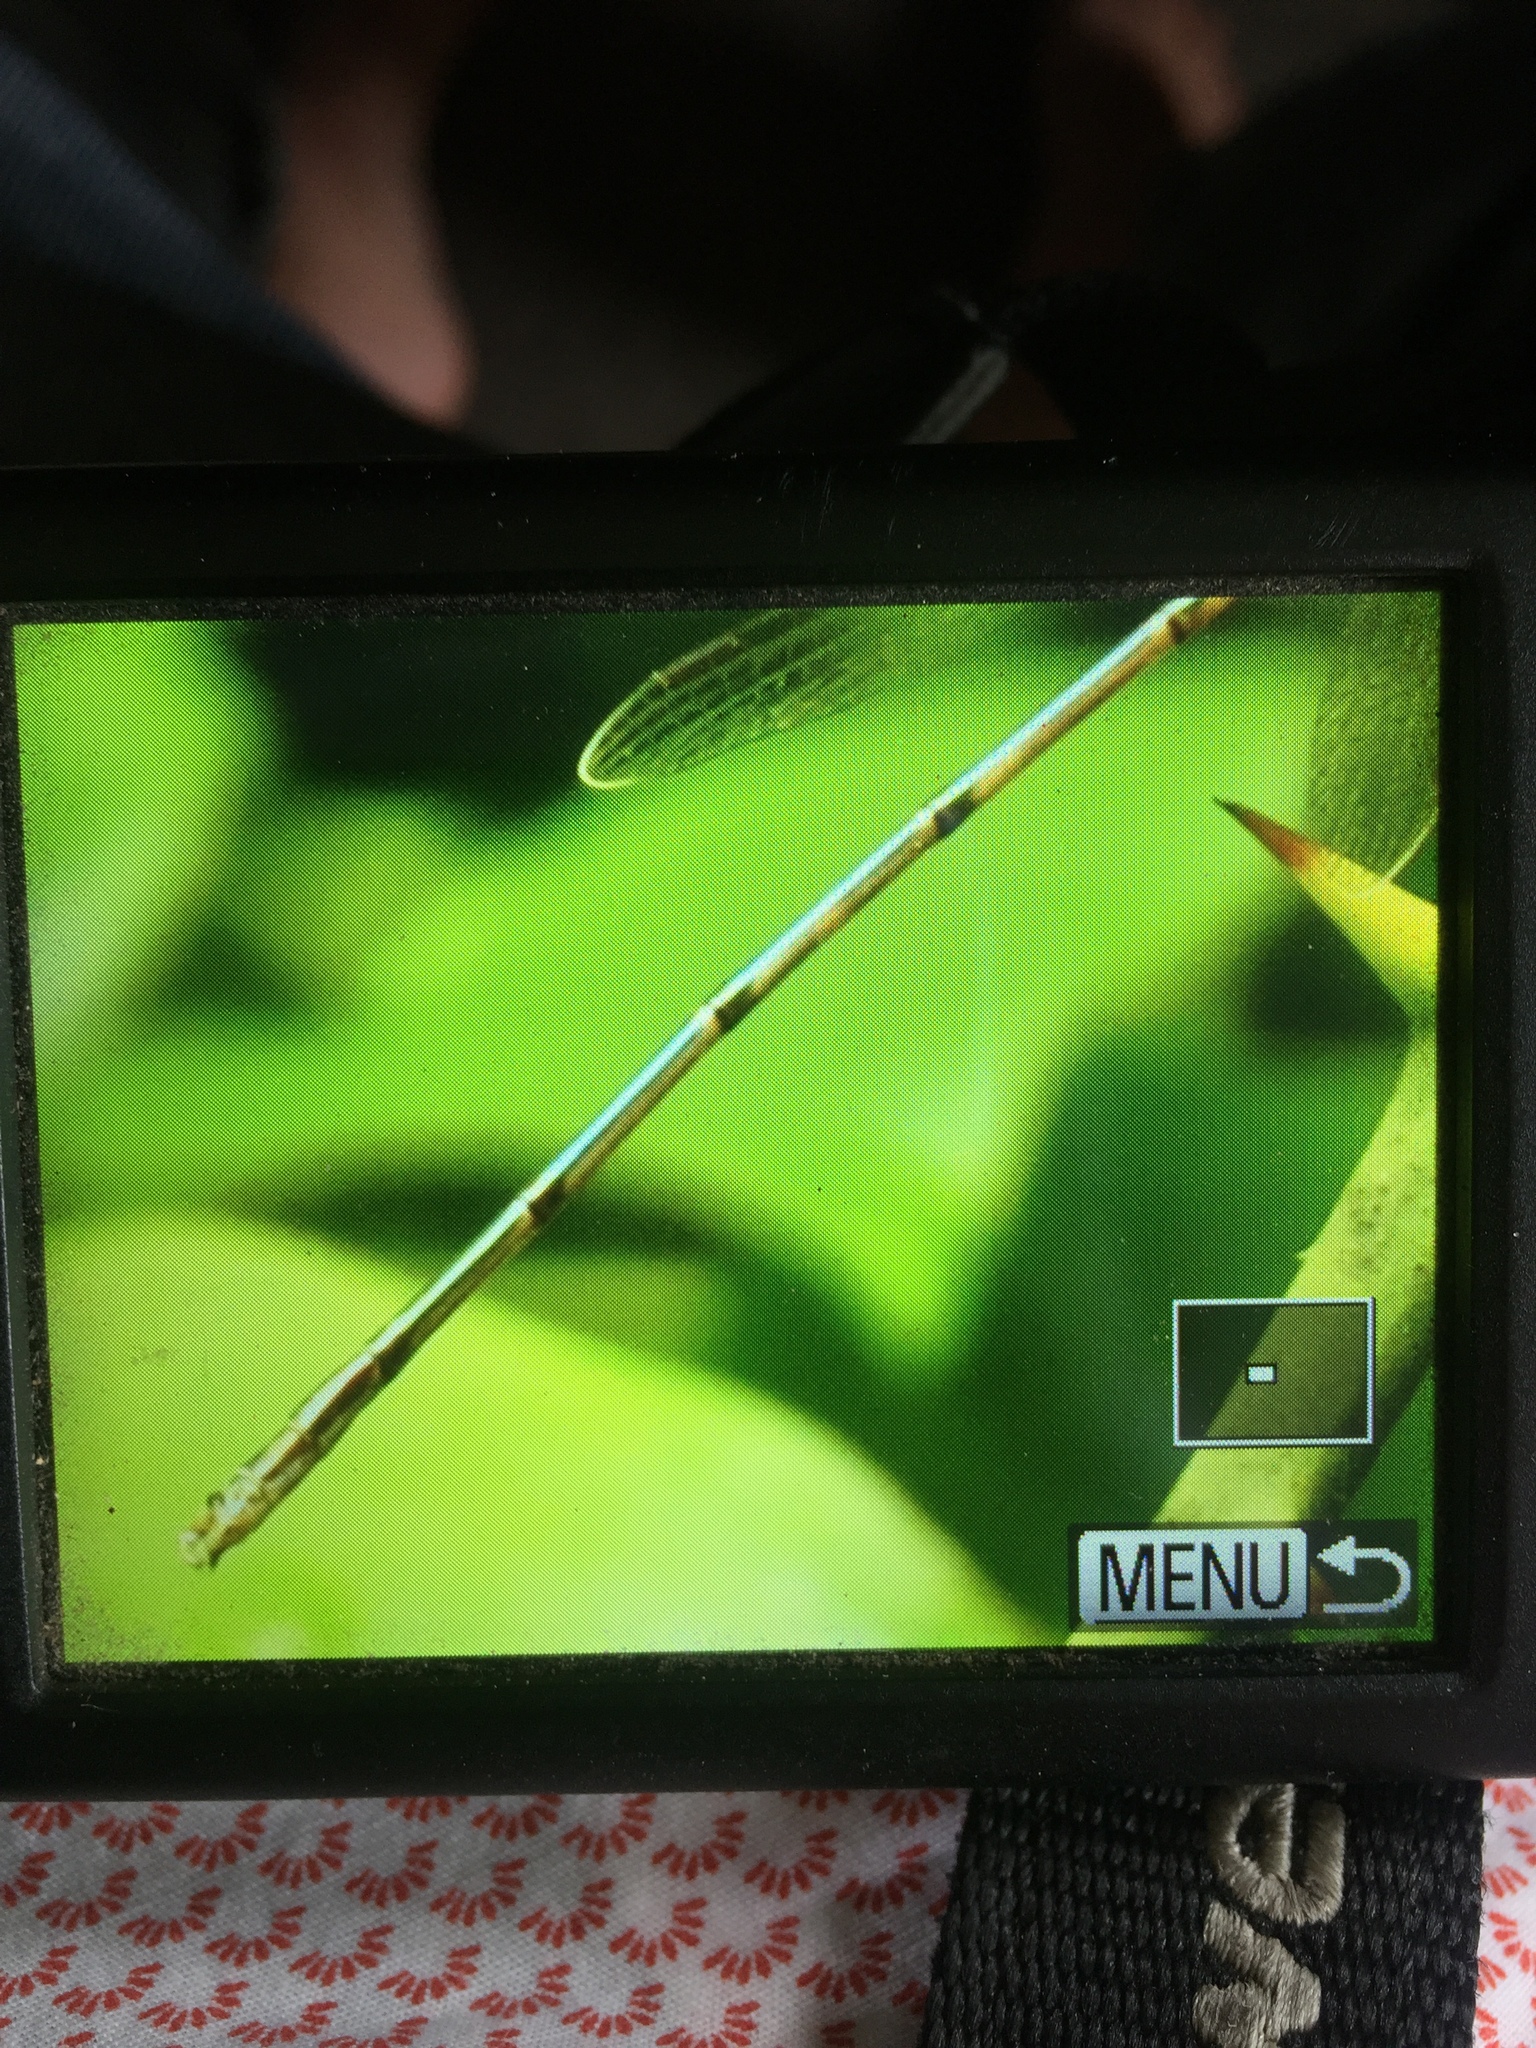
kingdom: Animalia
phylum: Arthropoda
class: Insecta
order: Odonata
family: Lestidae
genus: Lestes
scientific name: Lestes rectangularis
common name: Slender spreadwing
